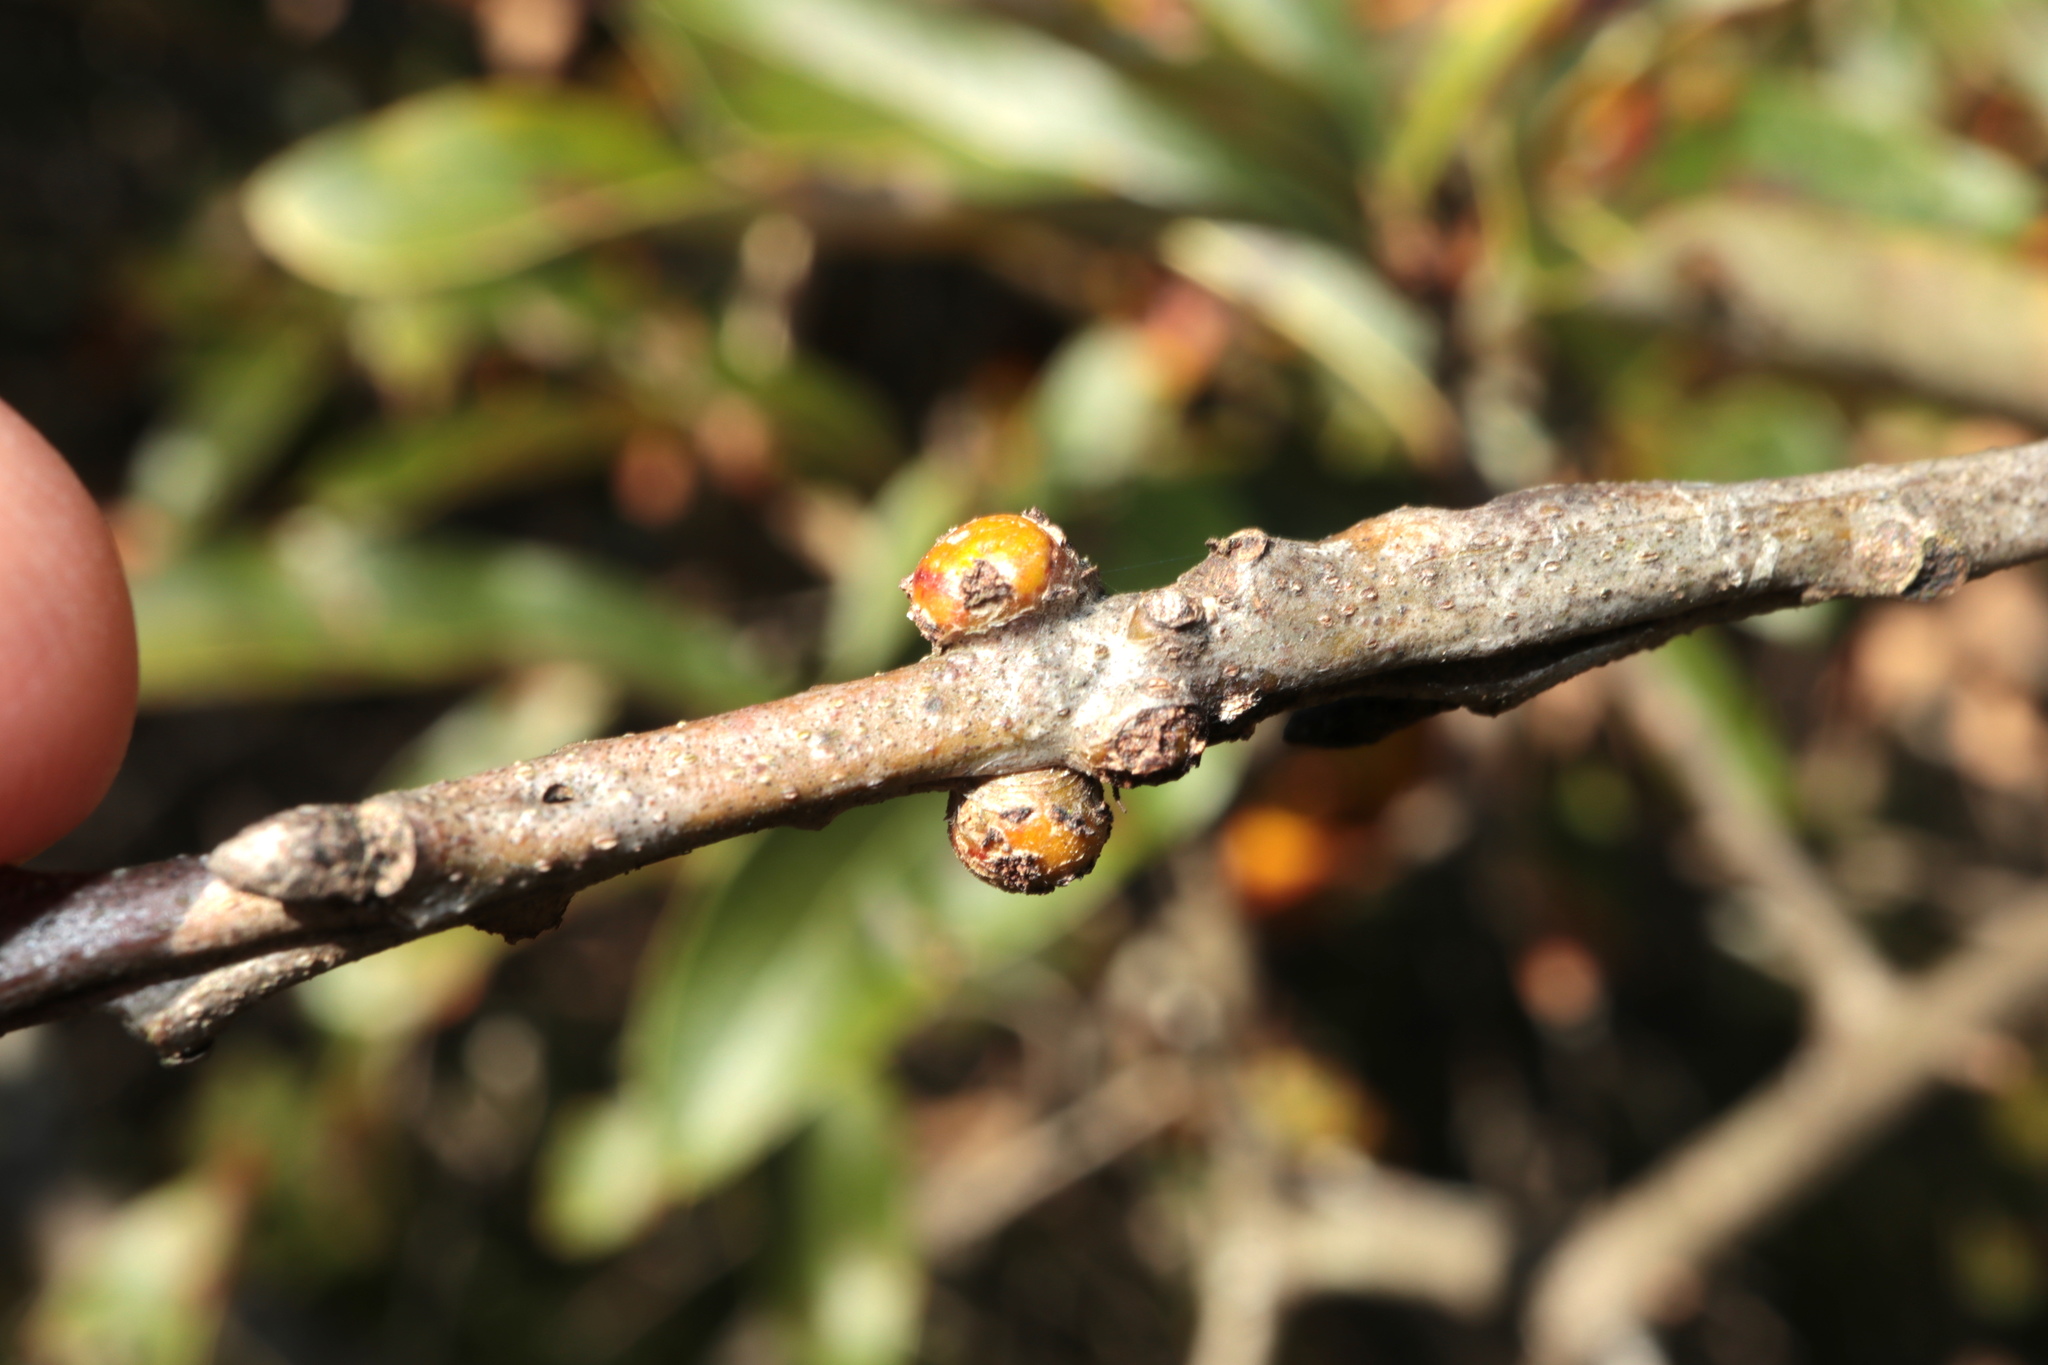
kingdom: Animalia
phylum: Arthropoda
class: Insecta
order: Hymenoptera
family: Cynipidae
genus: Callirhytis
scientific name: Callirhytis
